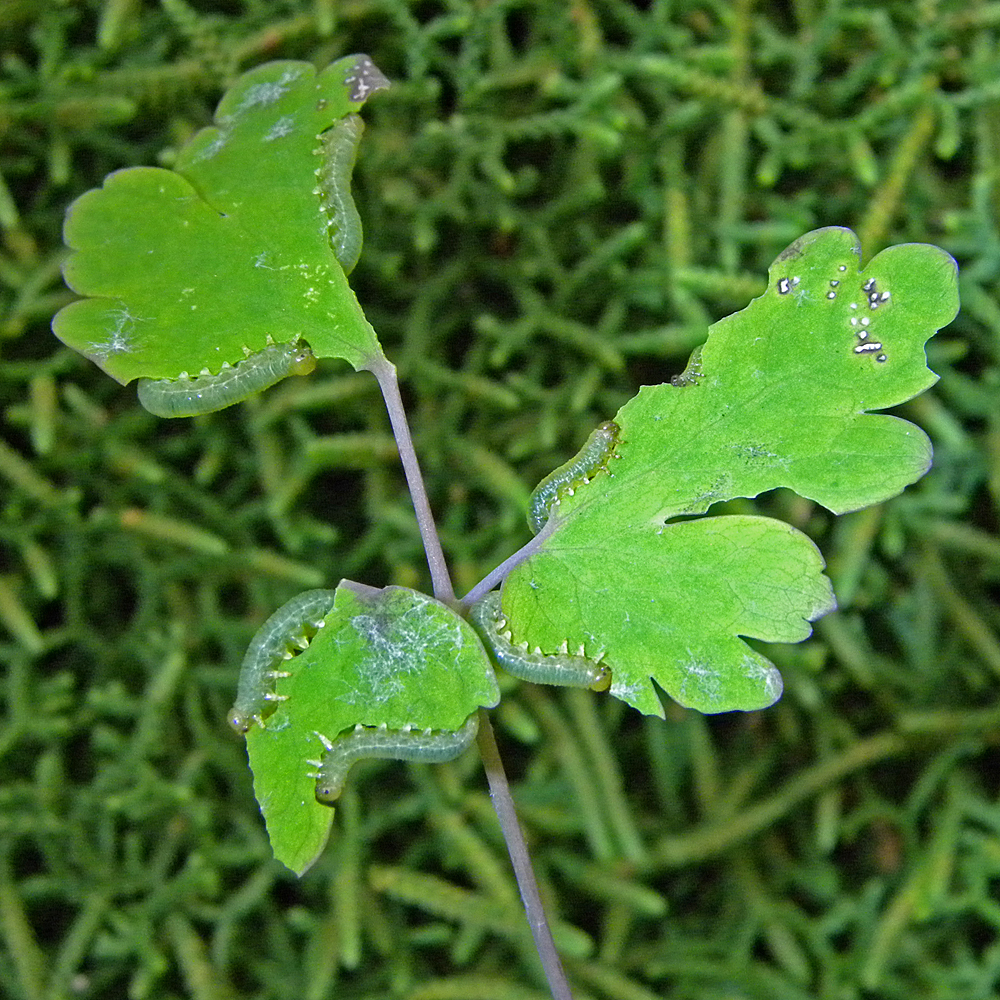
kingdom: Animalia
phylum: Arthropoda
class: Insecta
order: Hymenoptera
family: Tenthredinidae
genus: Pristiphora
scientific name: Pristiphora rufipes
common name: Sawfly
